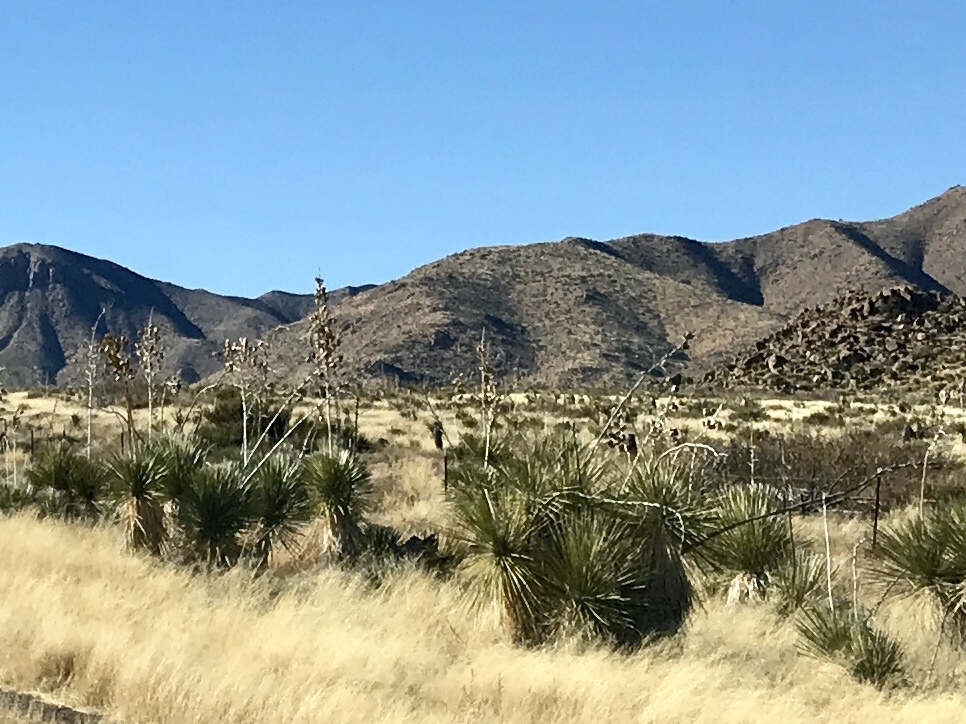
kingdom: Plantae
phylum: Tracheophyta
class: Liliopsida
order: Asparagales
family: Asparagaceae
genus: Yucca
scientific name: Yucca elata
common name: Palmella
